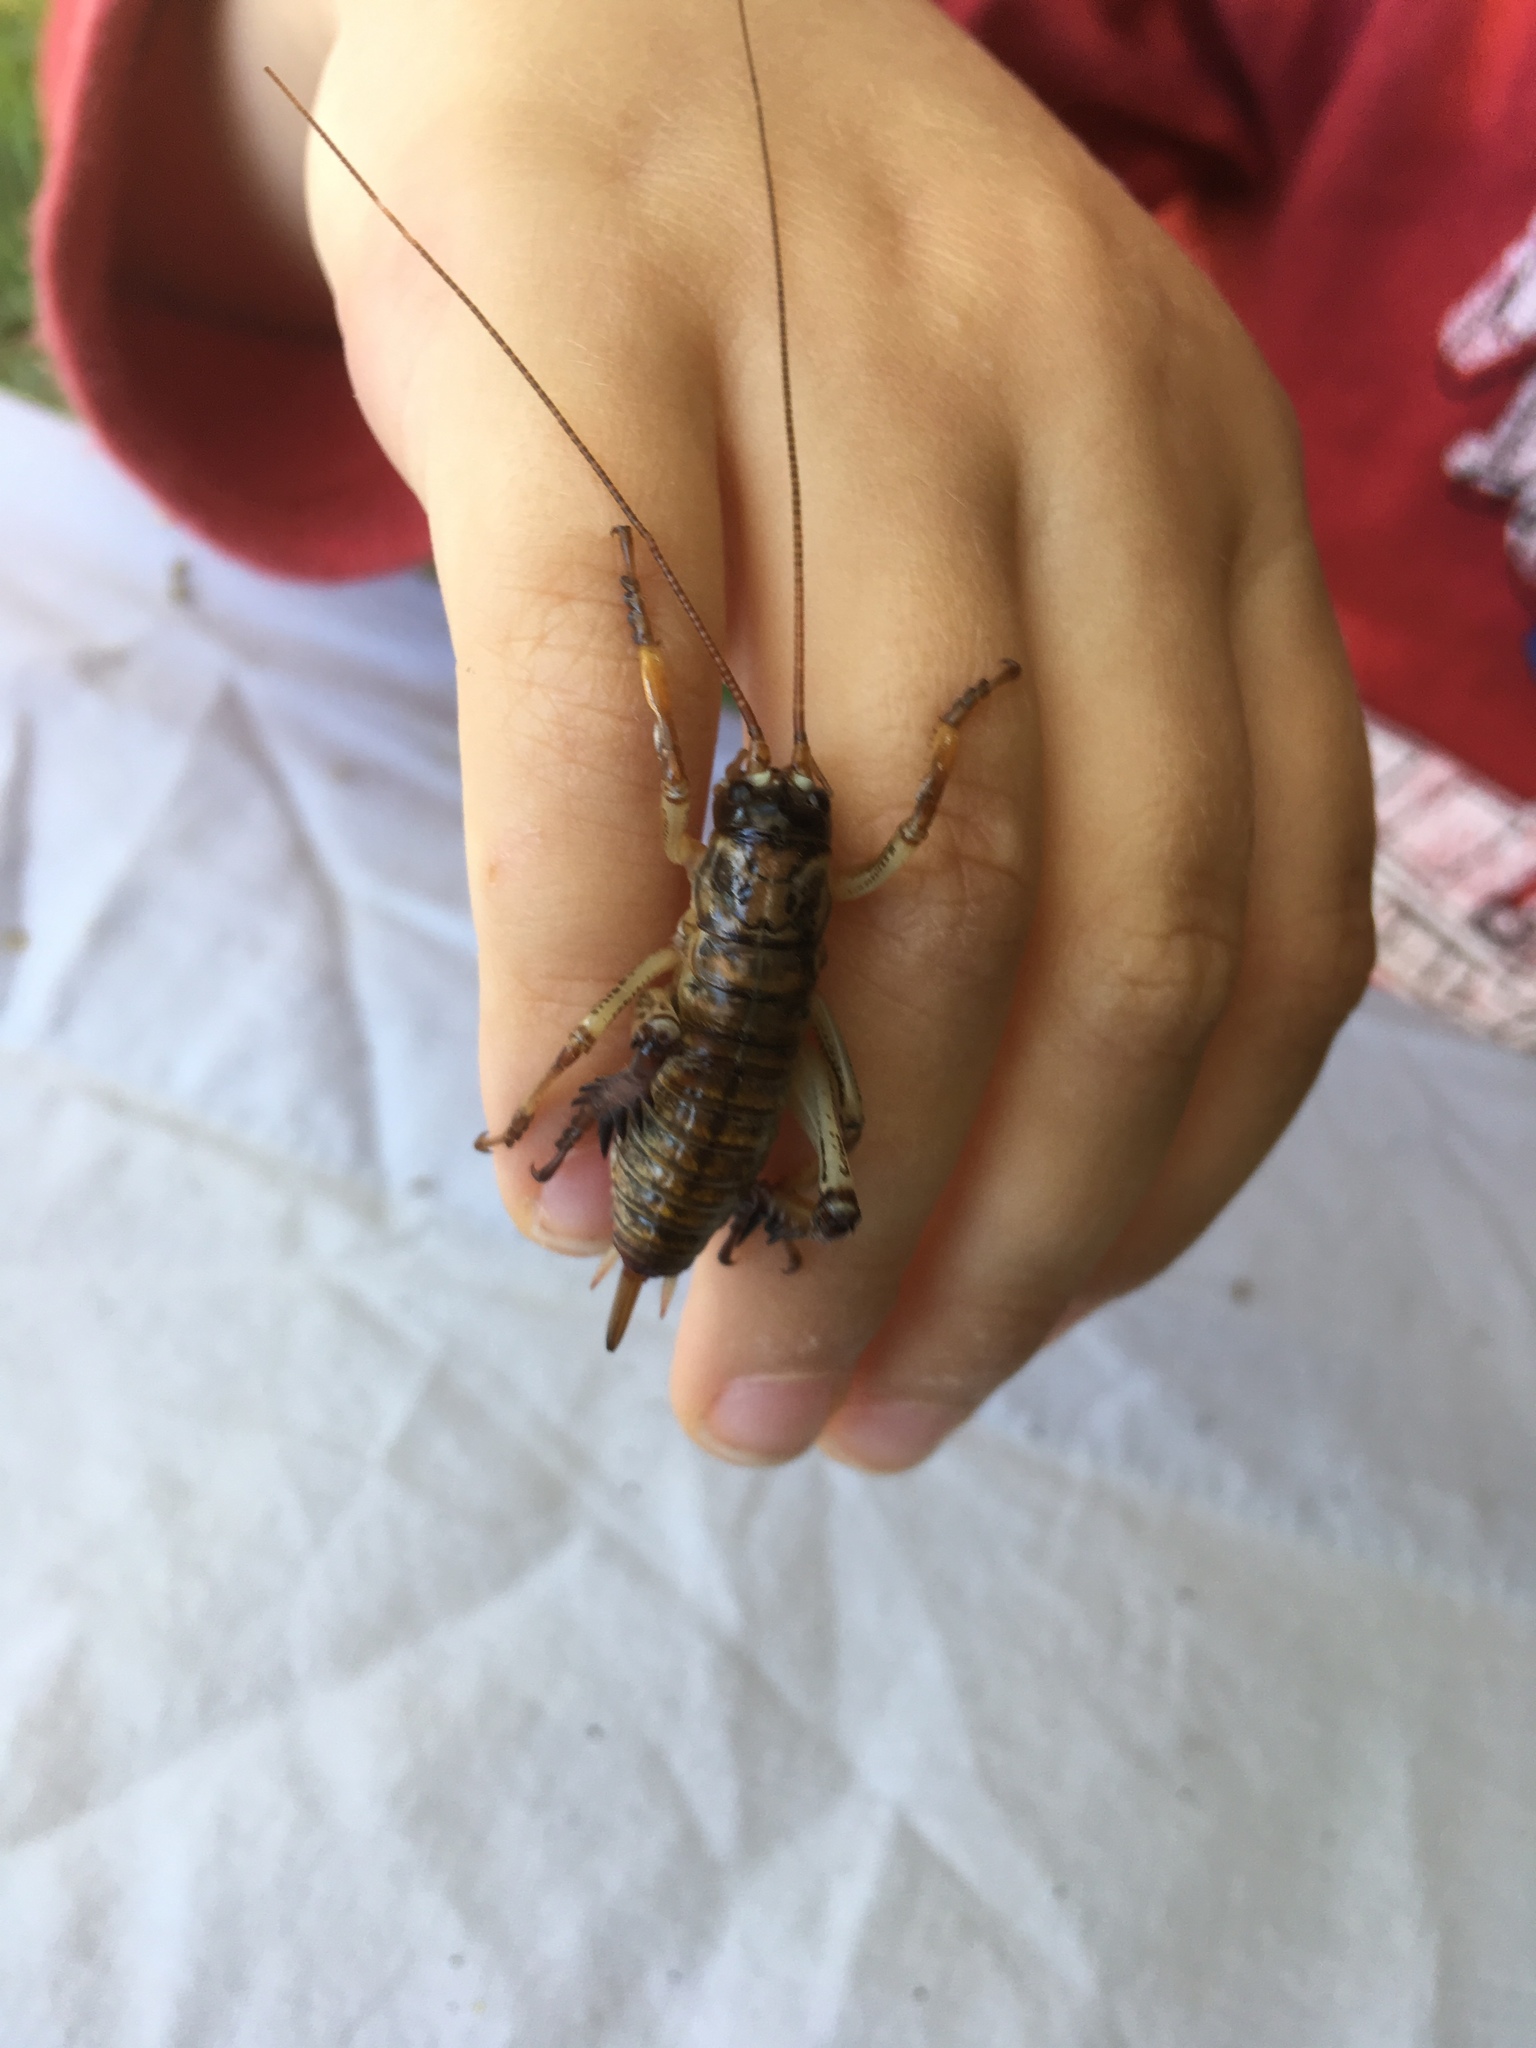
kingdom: Animalia
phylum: Arthropoda
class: Insecta
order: Orthoptera
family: Anostostomatidae
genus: Hemideina
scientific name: Hemideina thoracica
